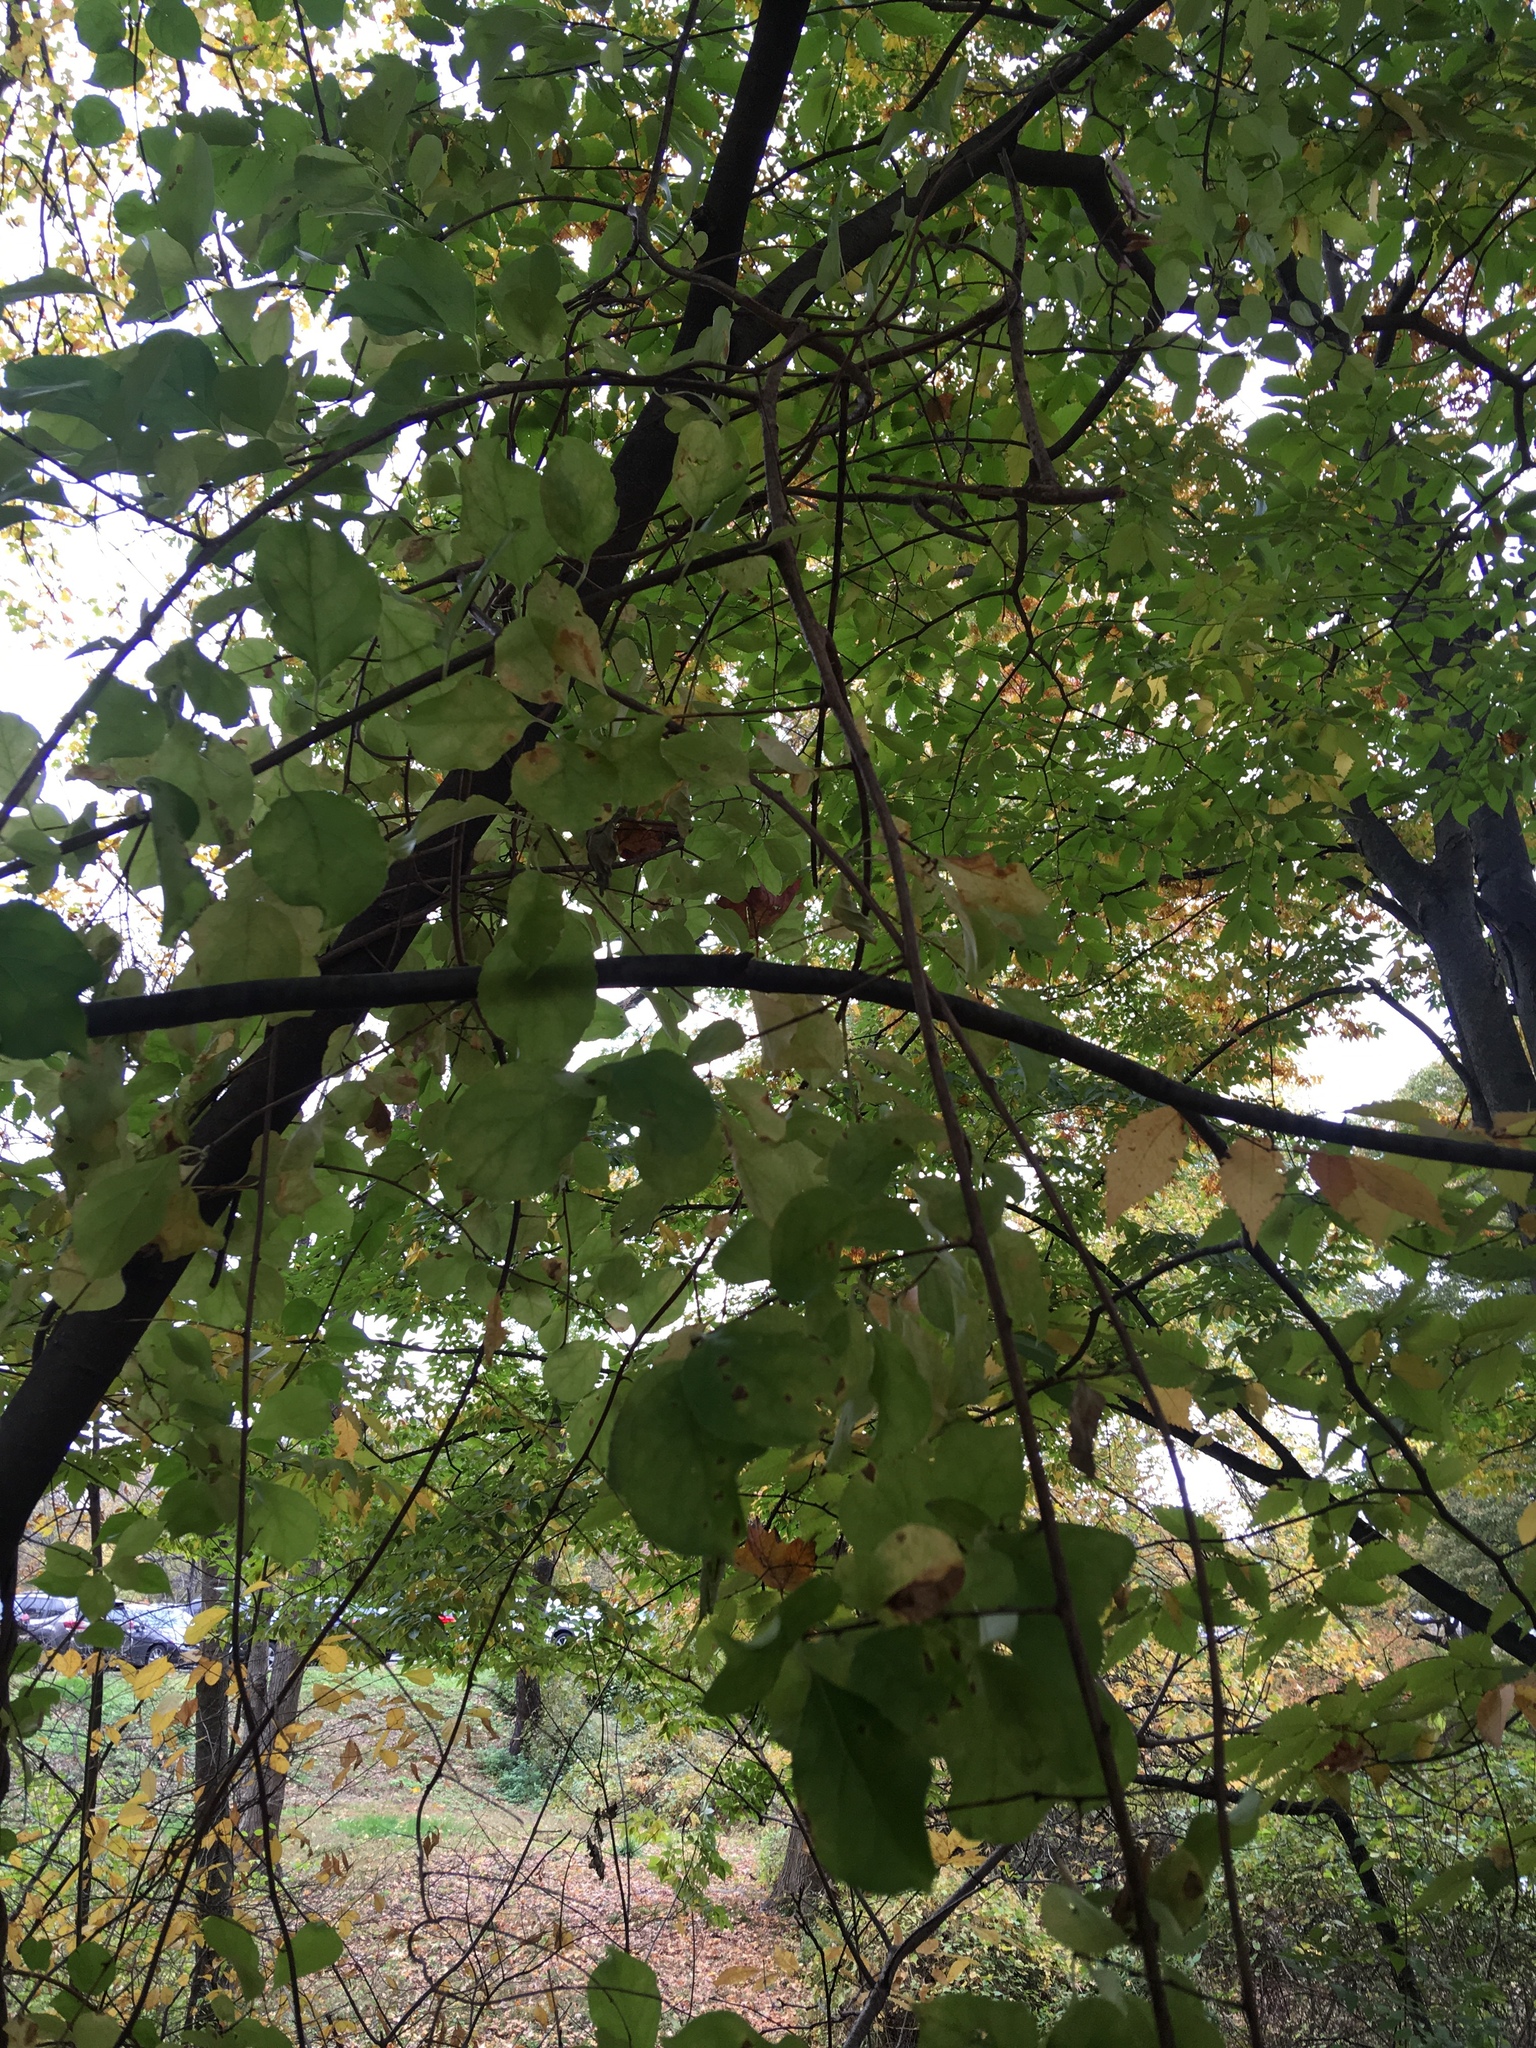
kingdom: Plantae
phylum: Tracheophyta
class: Magnoliopsida
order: Celastrales
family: Celastraceae
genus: Celastrus
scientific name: Celastrus orbiculatus
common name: Oriental bittersweet
